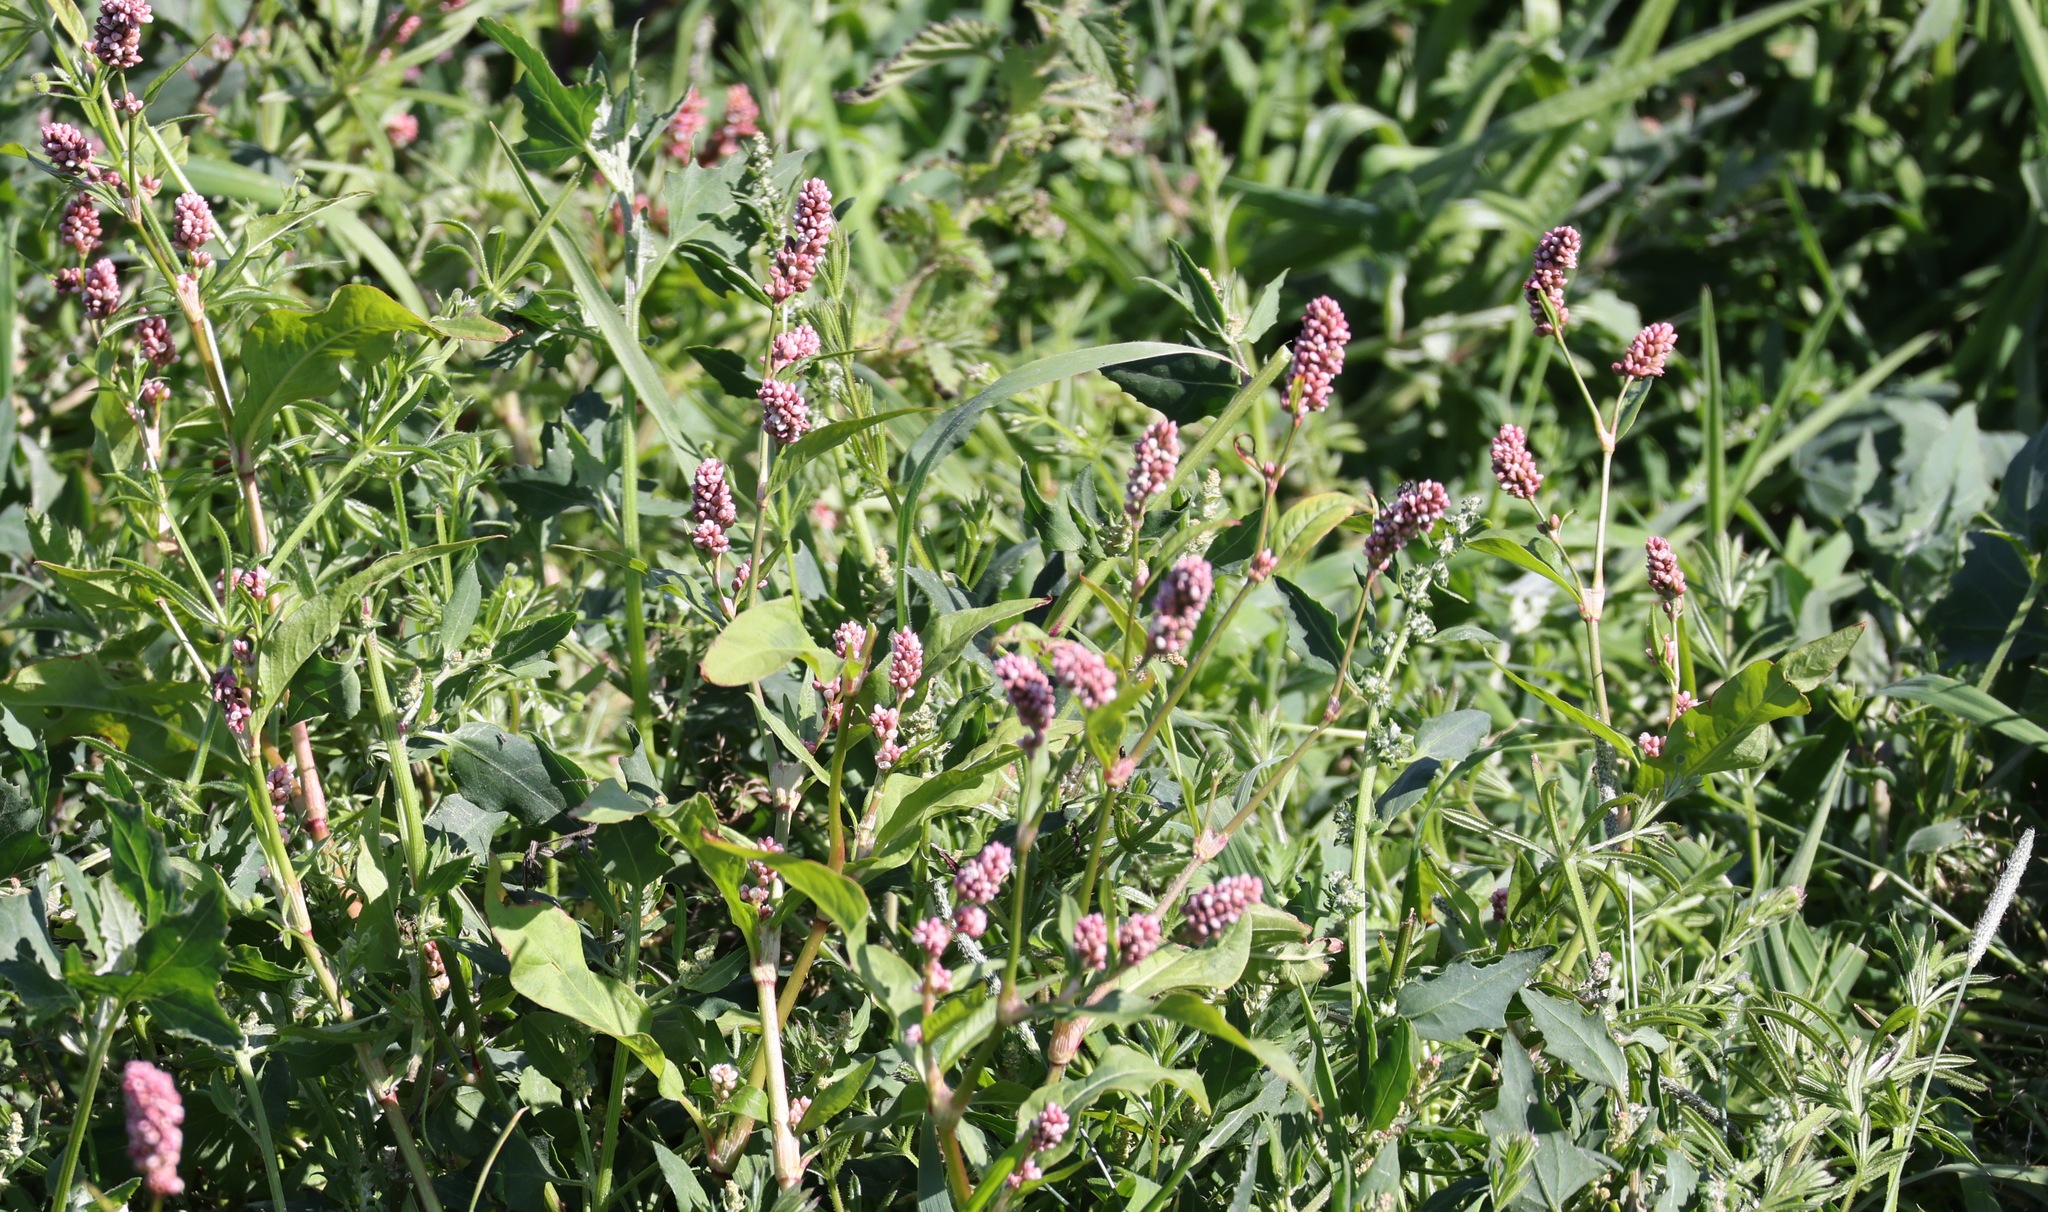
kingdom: Plantae
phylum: Tracheophyta
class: Magnoliopsida
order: Caryophyllales
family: Polygonaceae
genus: Persicaria
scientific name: Persicaria maculosa
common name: Redshank
